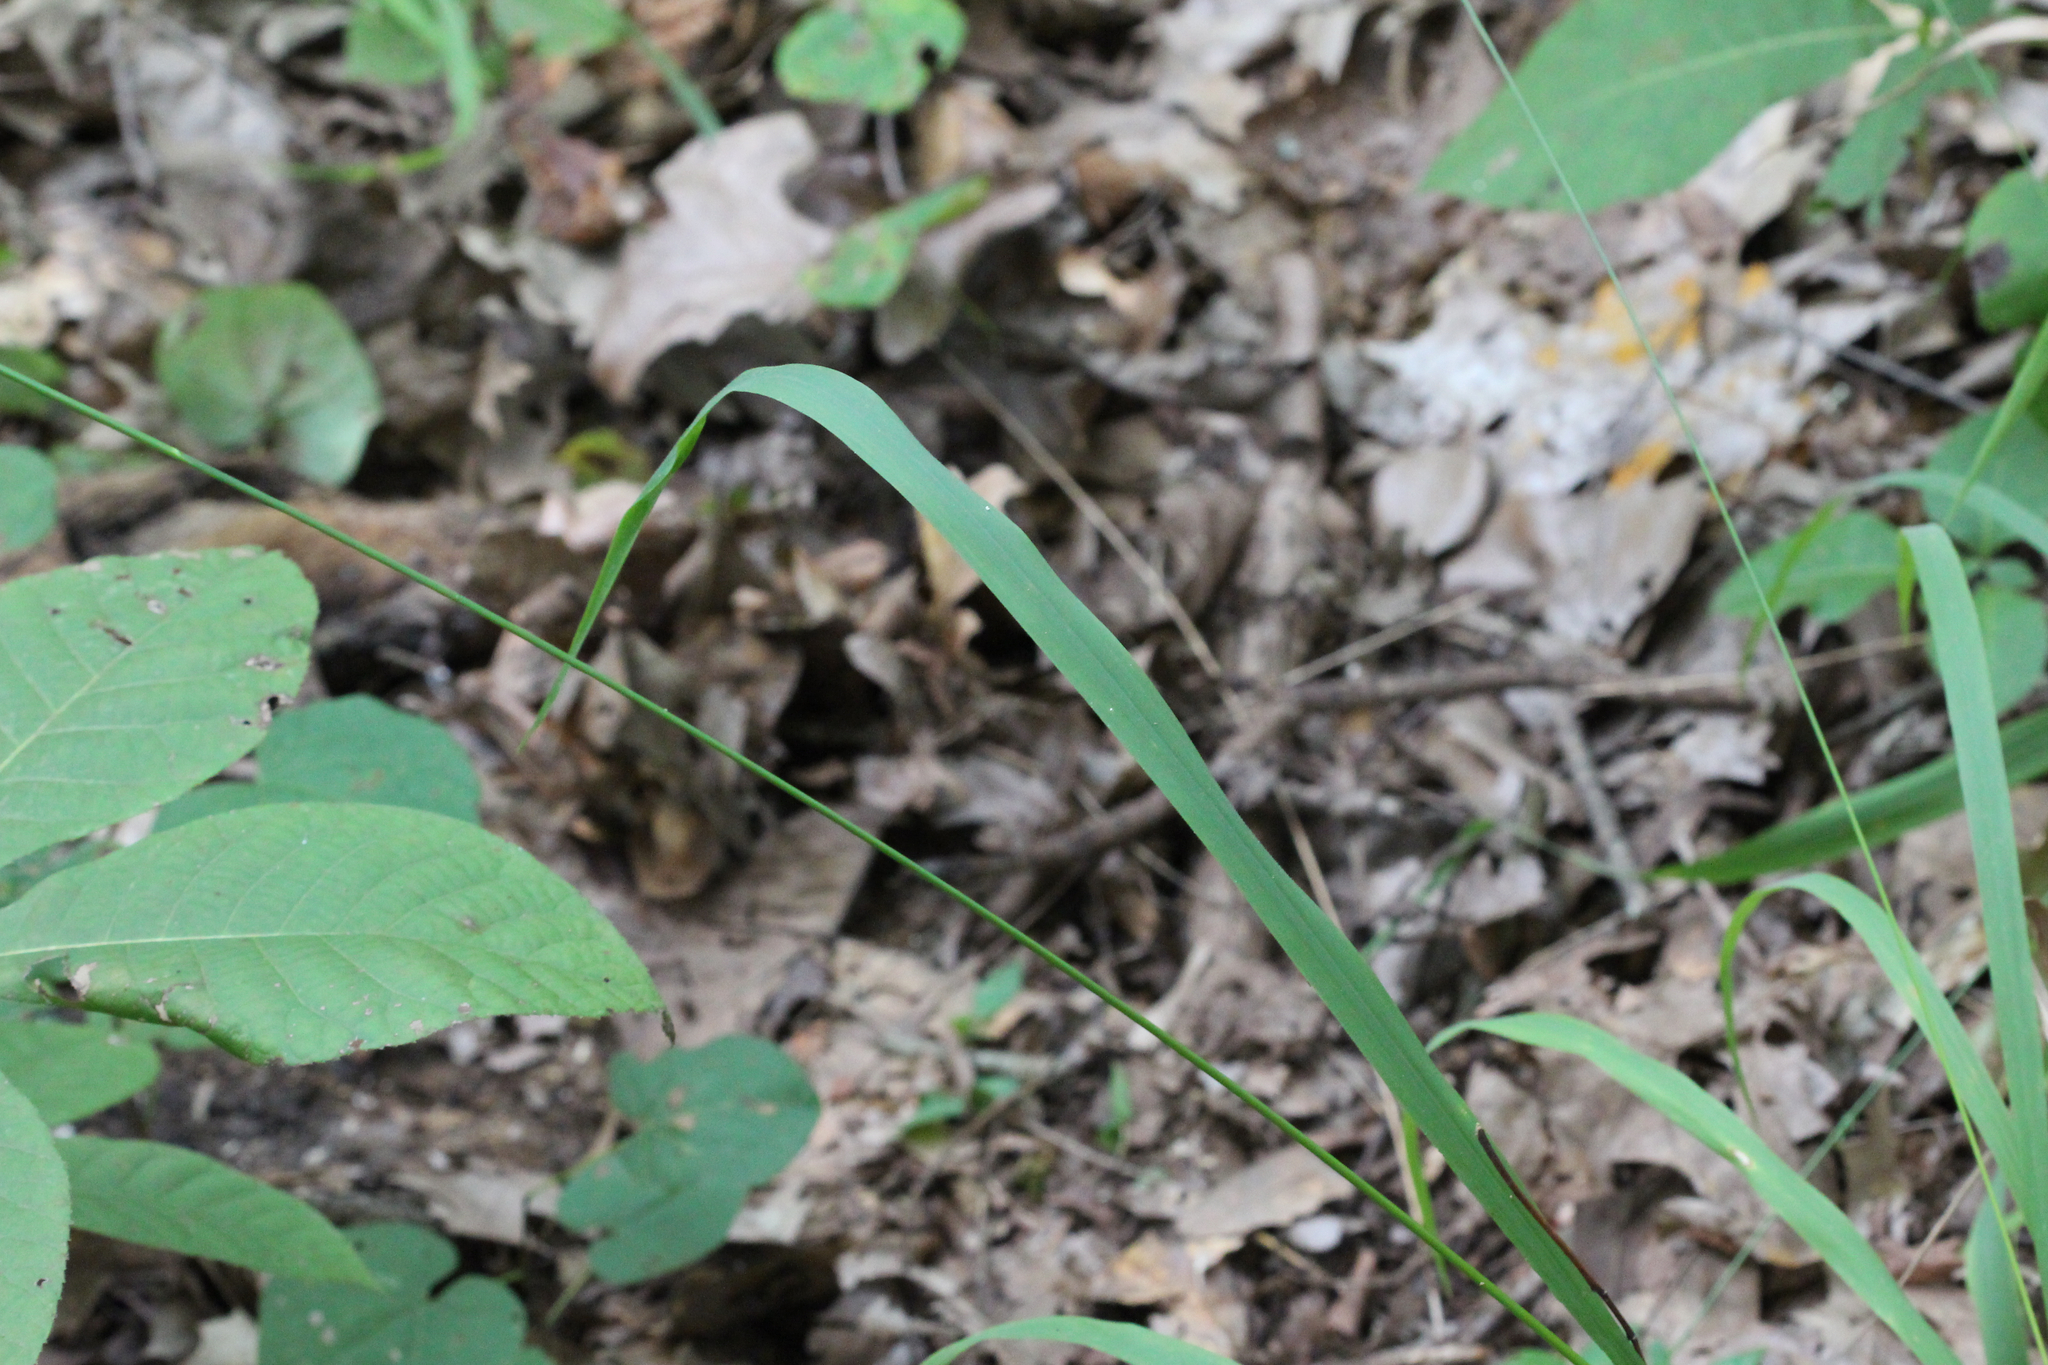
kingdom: Plantae
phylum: Tracheophyta
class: Liliopsida
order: Poales
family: Poaceae
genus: Chasmanthium
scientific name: Chasmanthium laxum
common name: Slender chasmanthium
